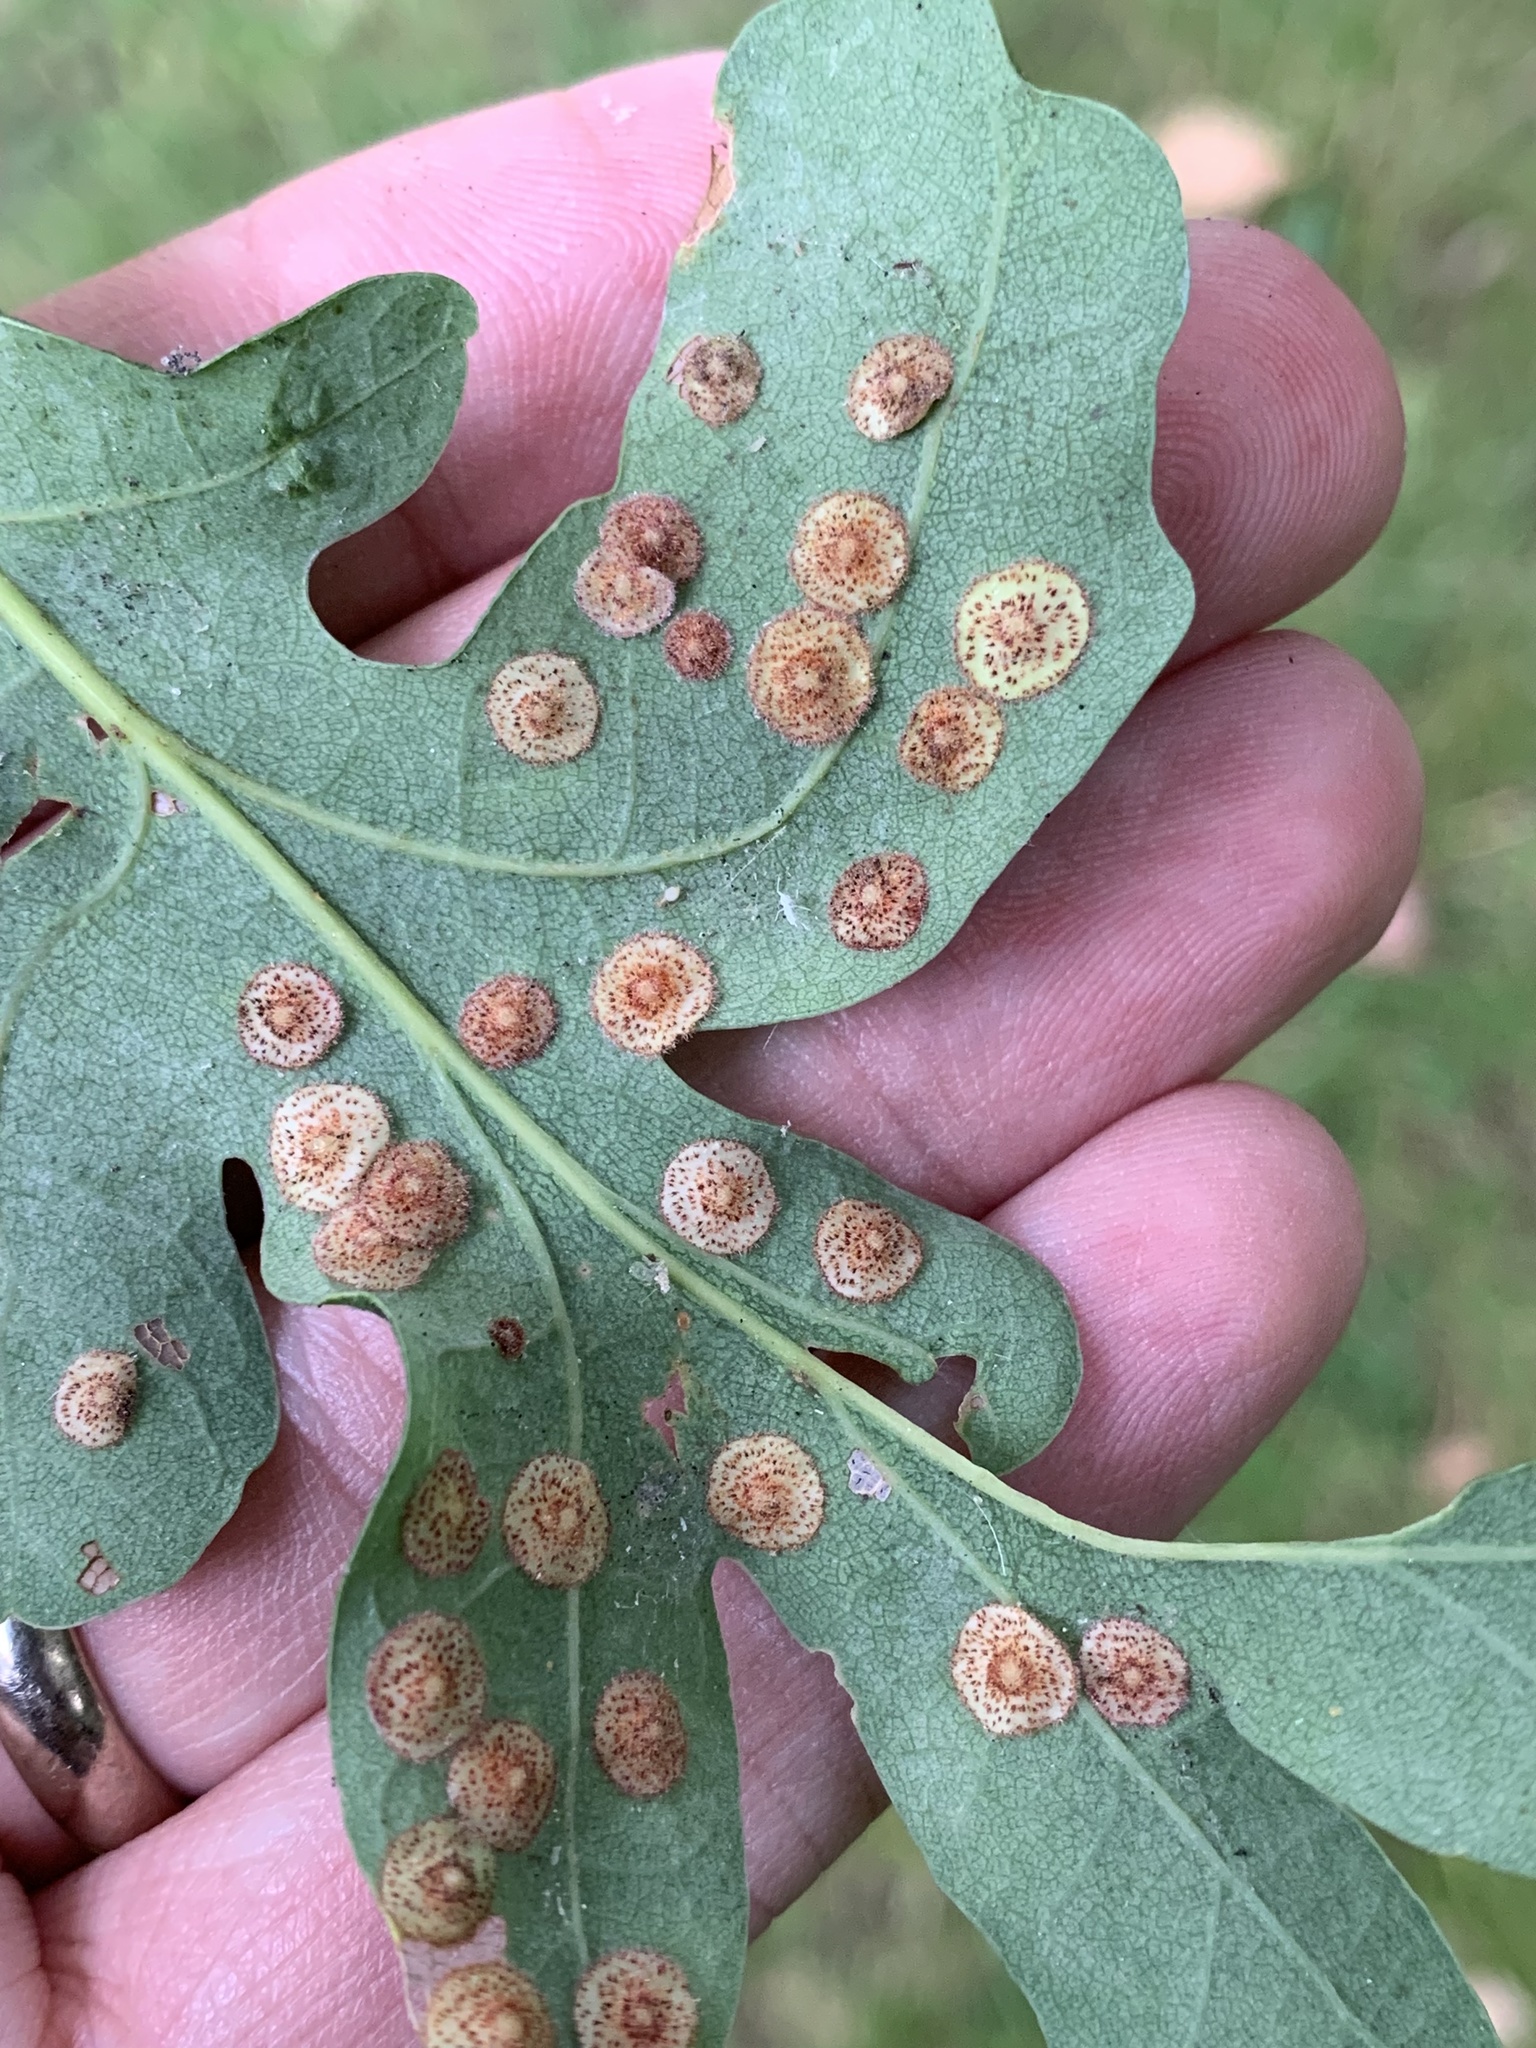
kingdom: Animalia
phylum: Arthropoda
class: Insecta
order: Hymenoptera
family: Cynipidae
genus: Neuroterus
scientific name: Neuroterus quercusbaccarum
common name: Common spangle gall
